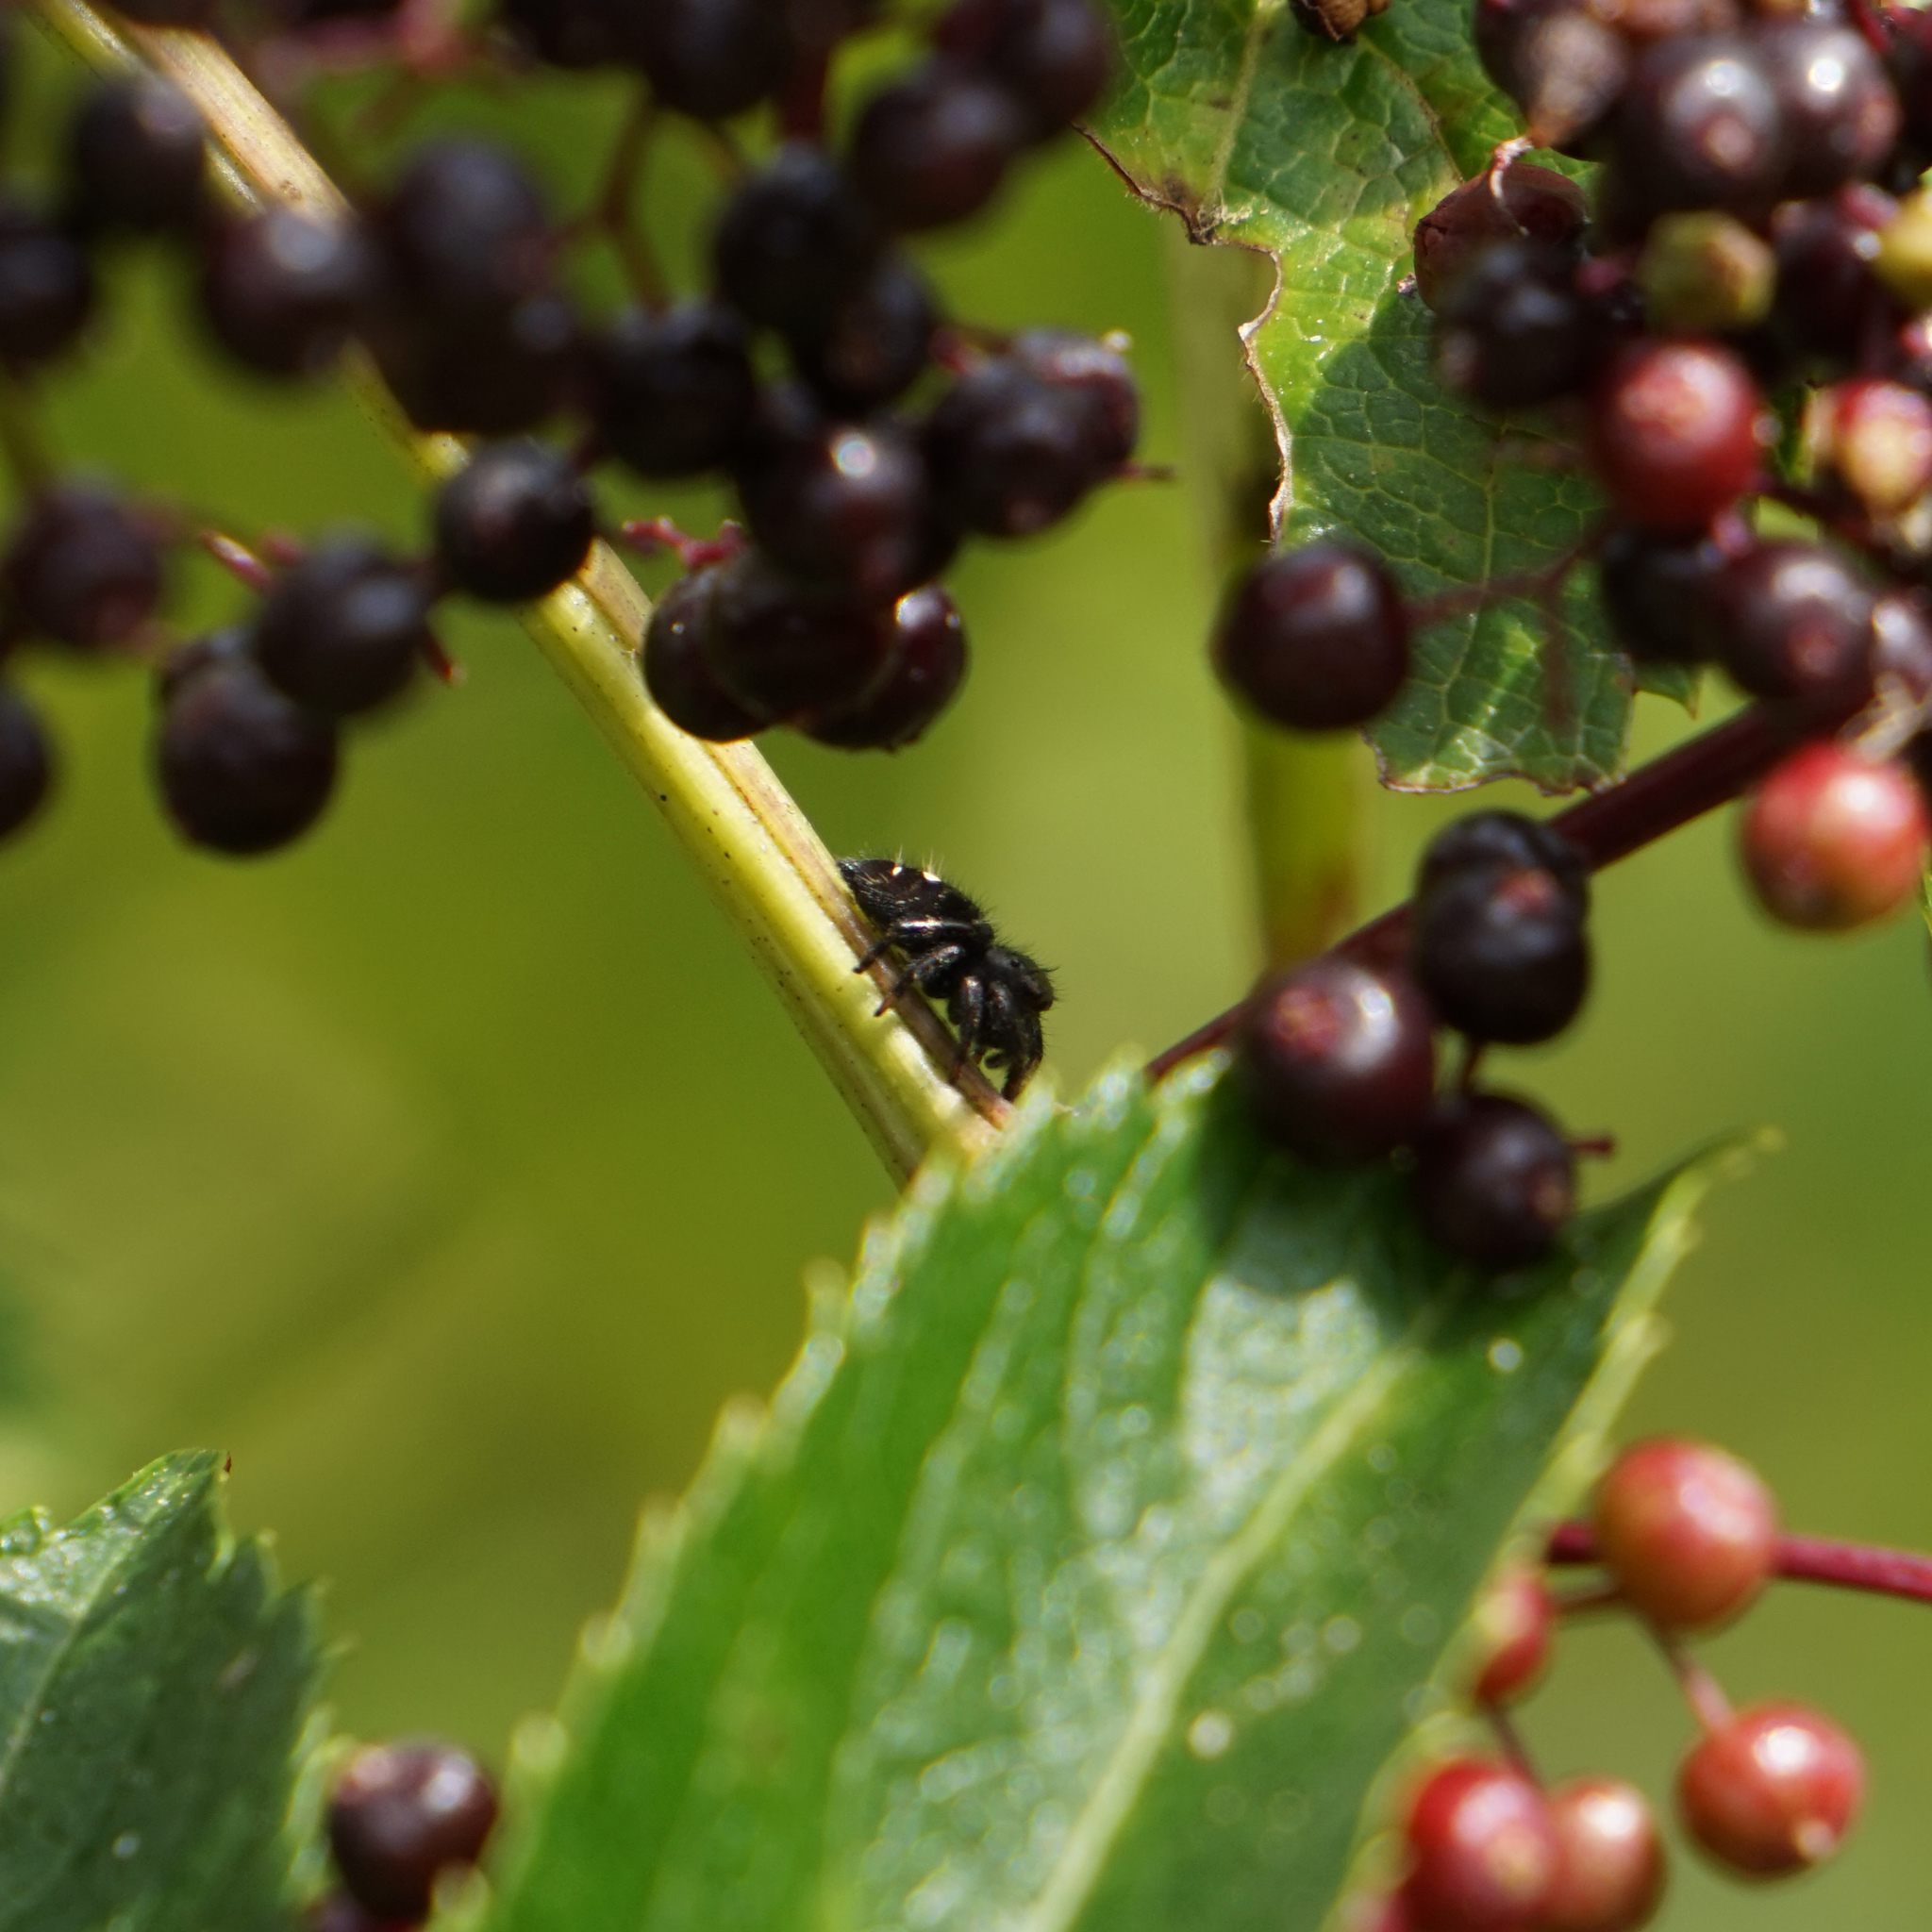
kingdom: Animalia
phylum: Arthropoda
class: Arachnida
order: Araneae
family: Salticidae
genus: Phidippus
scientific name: Phidippus audax
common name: Bold jumper
